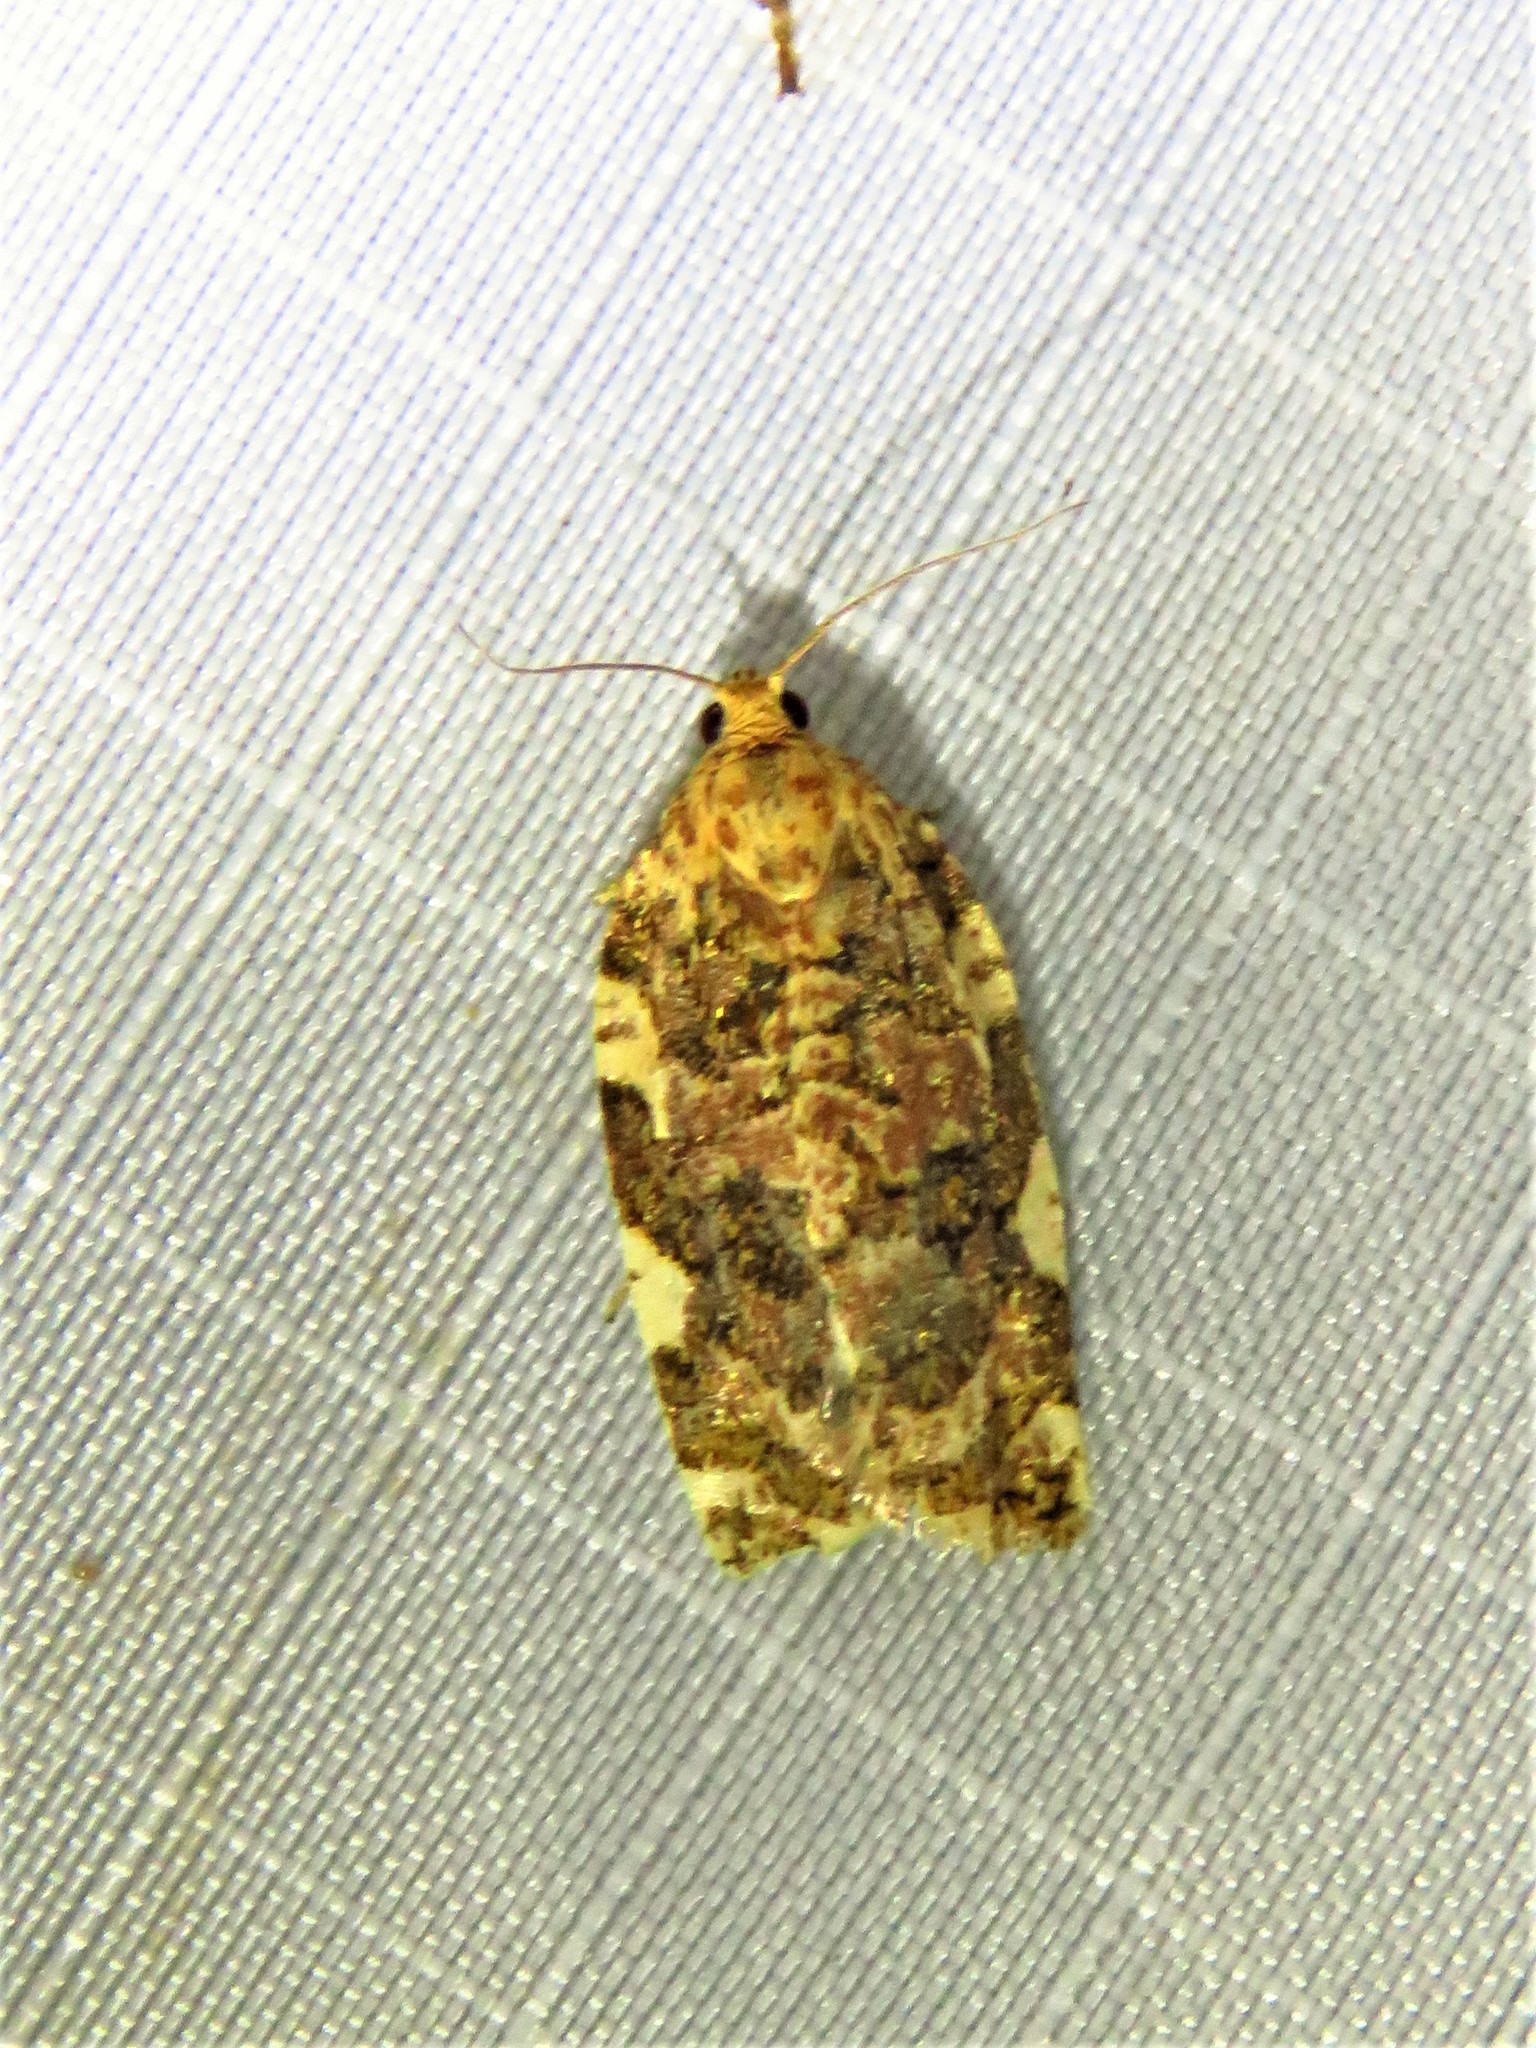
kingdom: Animalia
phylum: Arthropoda
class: Insecta
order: Lepidoptera
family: Tortricidae
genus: Archips
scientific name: Archips argyrospila
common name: Fruit-tree leafroller moth
